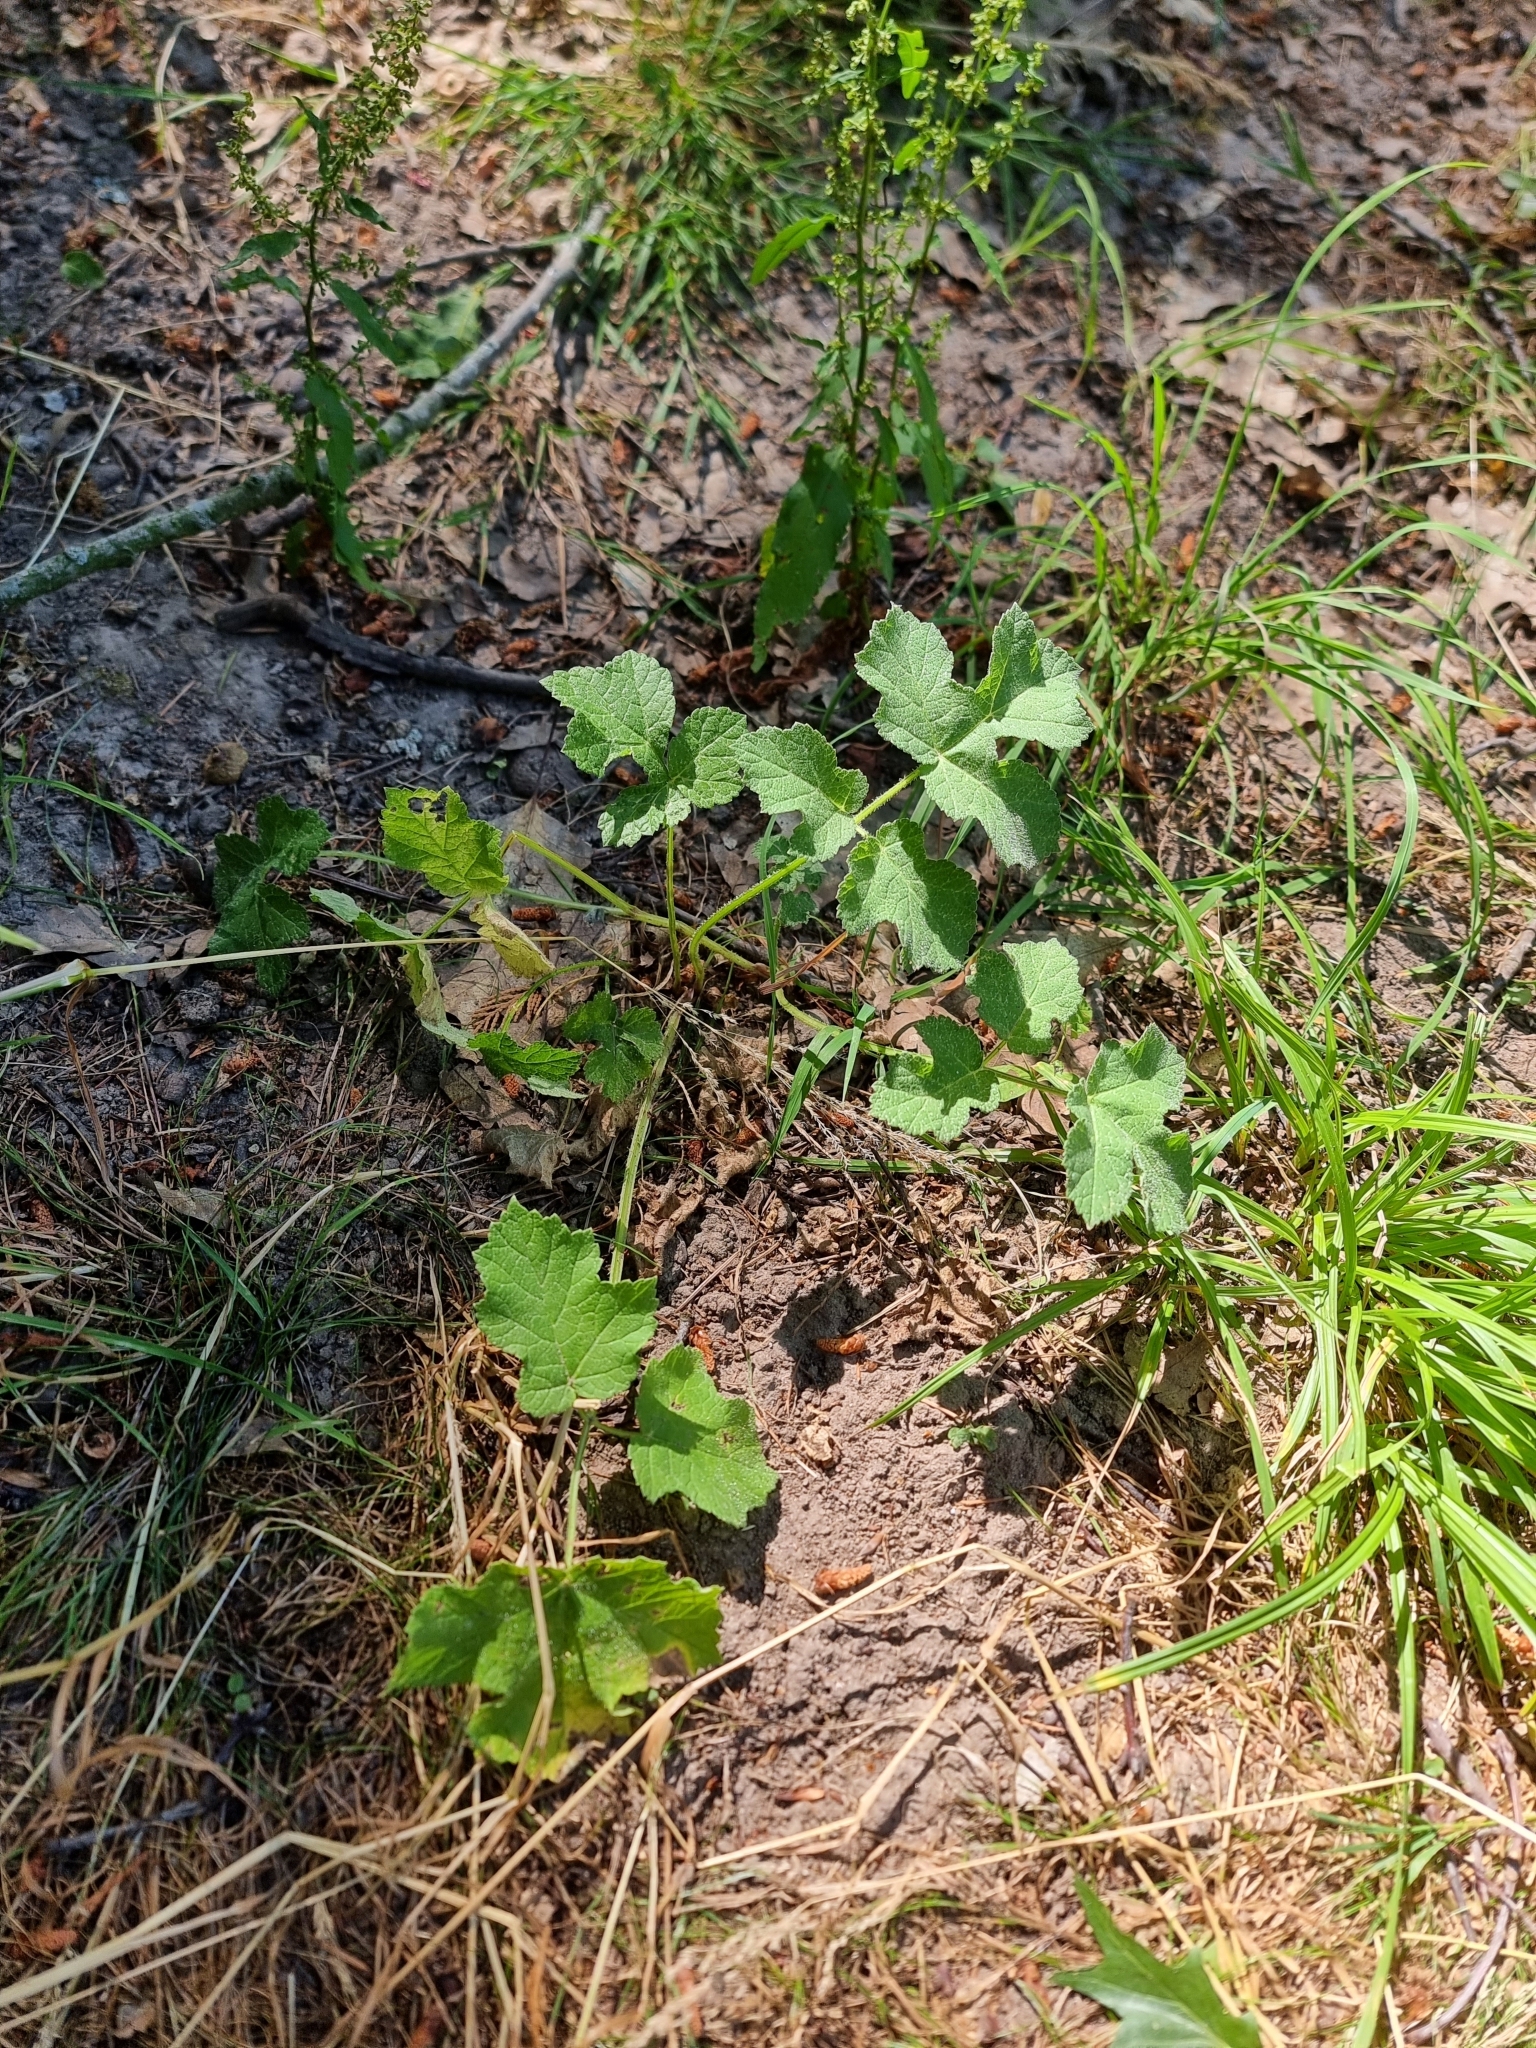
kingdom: Plantae
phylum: Tracheophyta
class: Magnoliopsida
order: Apiales
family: Apiaceae
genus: Heracleum
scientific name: Heracleum sphondylium
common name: Hogweed
